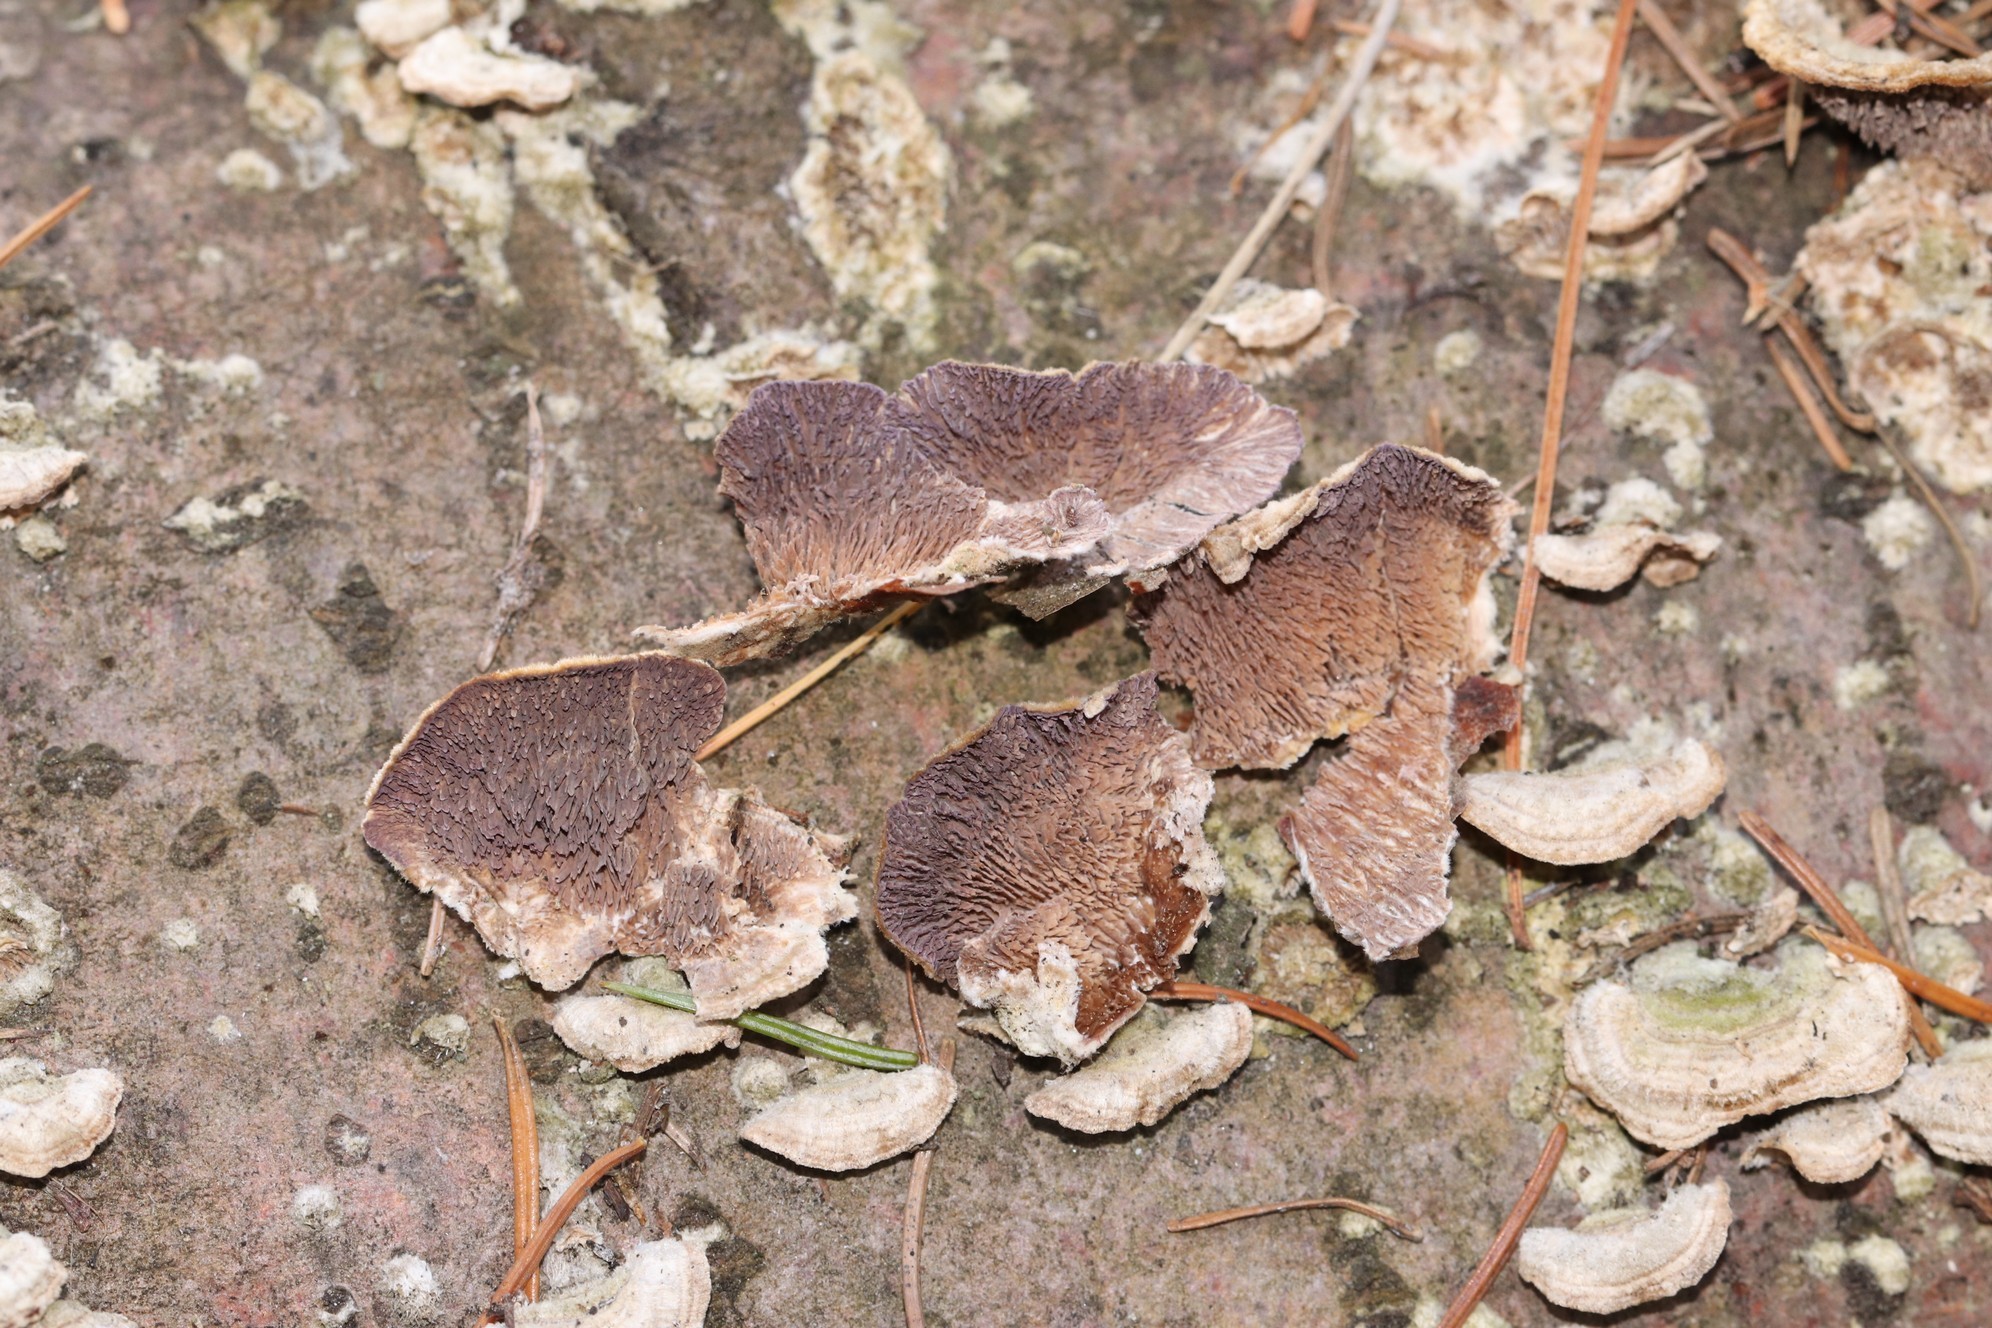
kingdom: Fungi
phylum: Basidiomycota
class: Agaricomycetes
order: Hymenochaetales
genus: Trichaptum
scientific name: Trichaptum fuscoviolaceum
